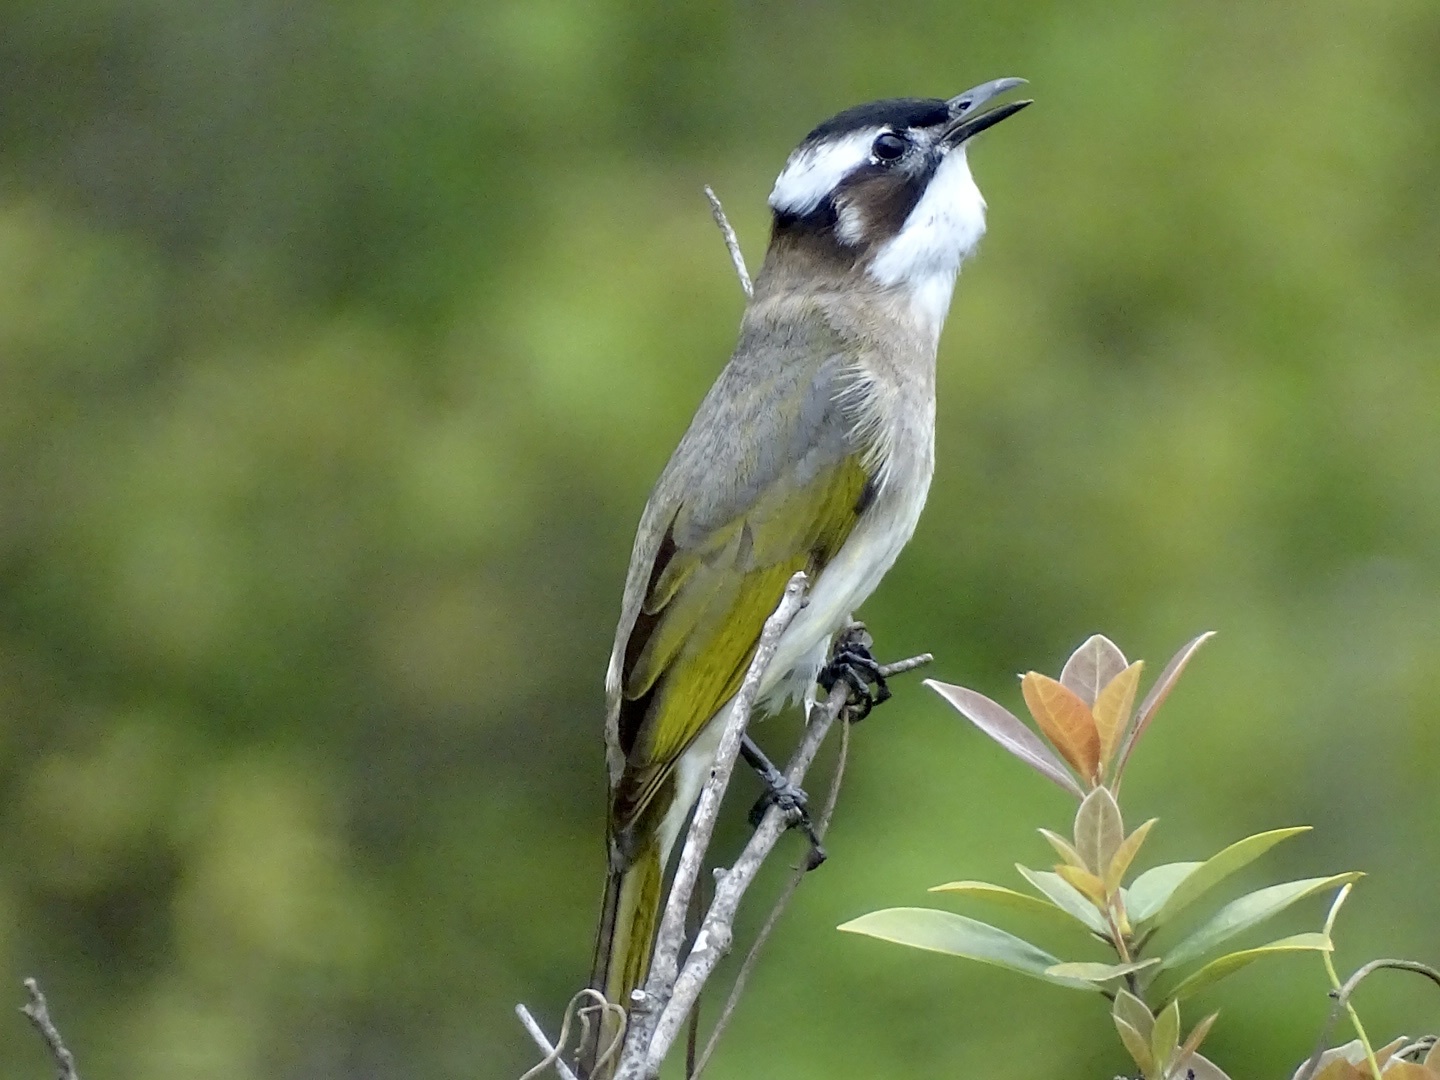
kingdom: Animalia
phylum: Chordata
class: Aves
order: Passeriformes
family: Pycnonotidae
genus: Pycnonotus
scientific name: Pycnonotus sinensis
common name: Light-vented bulbul
